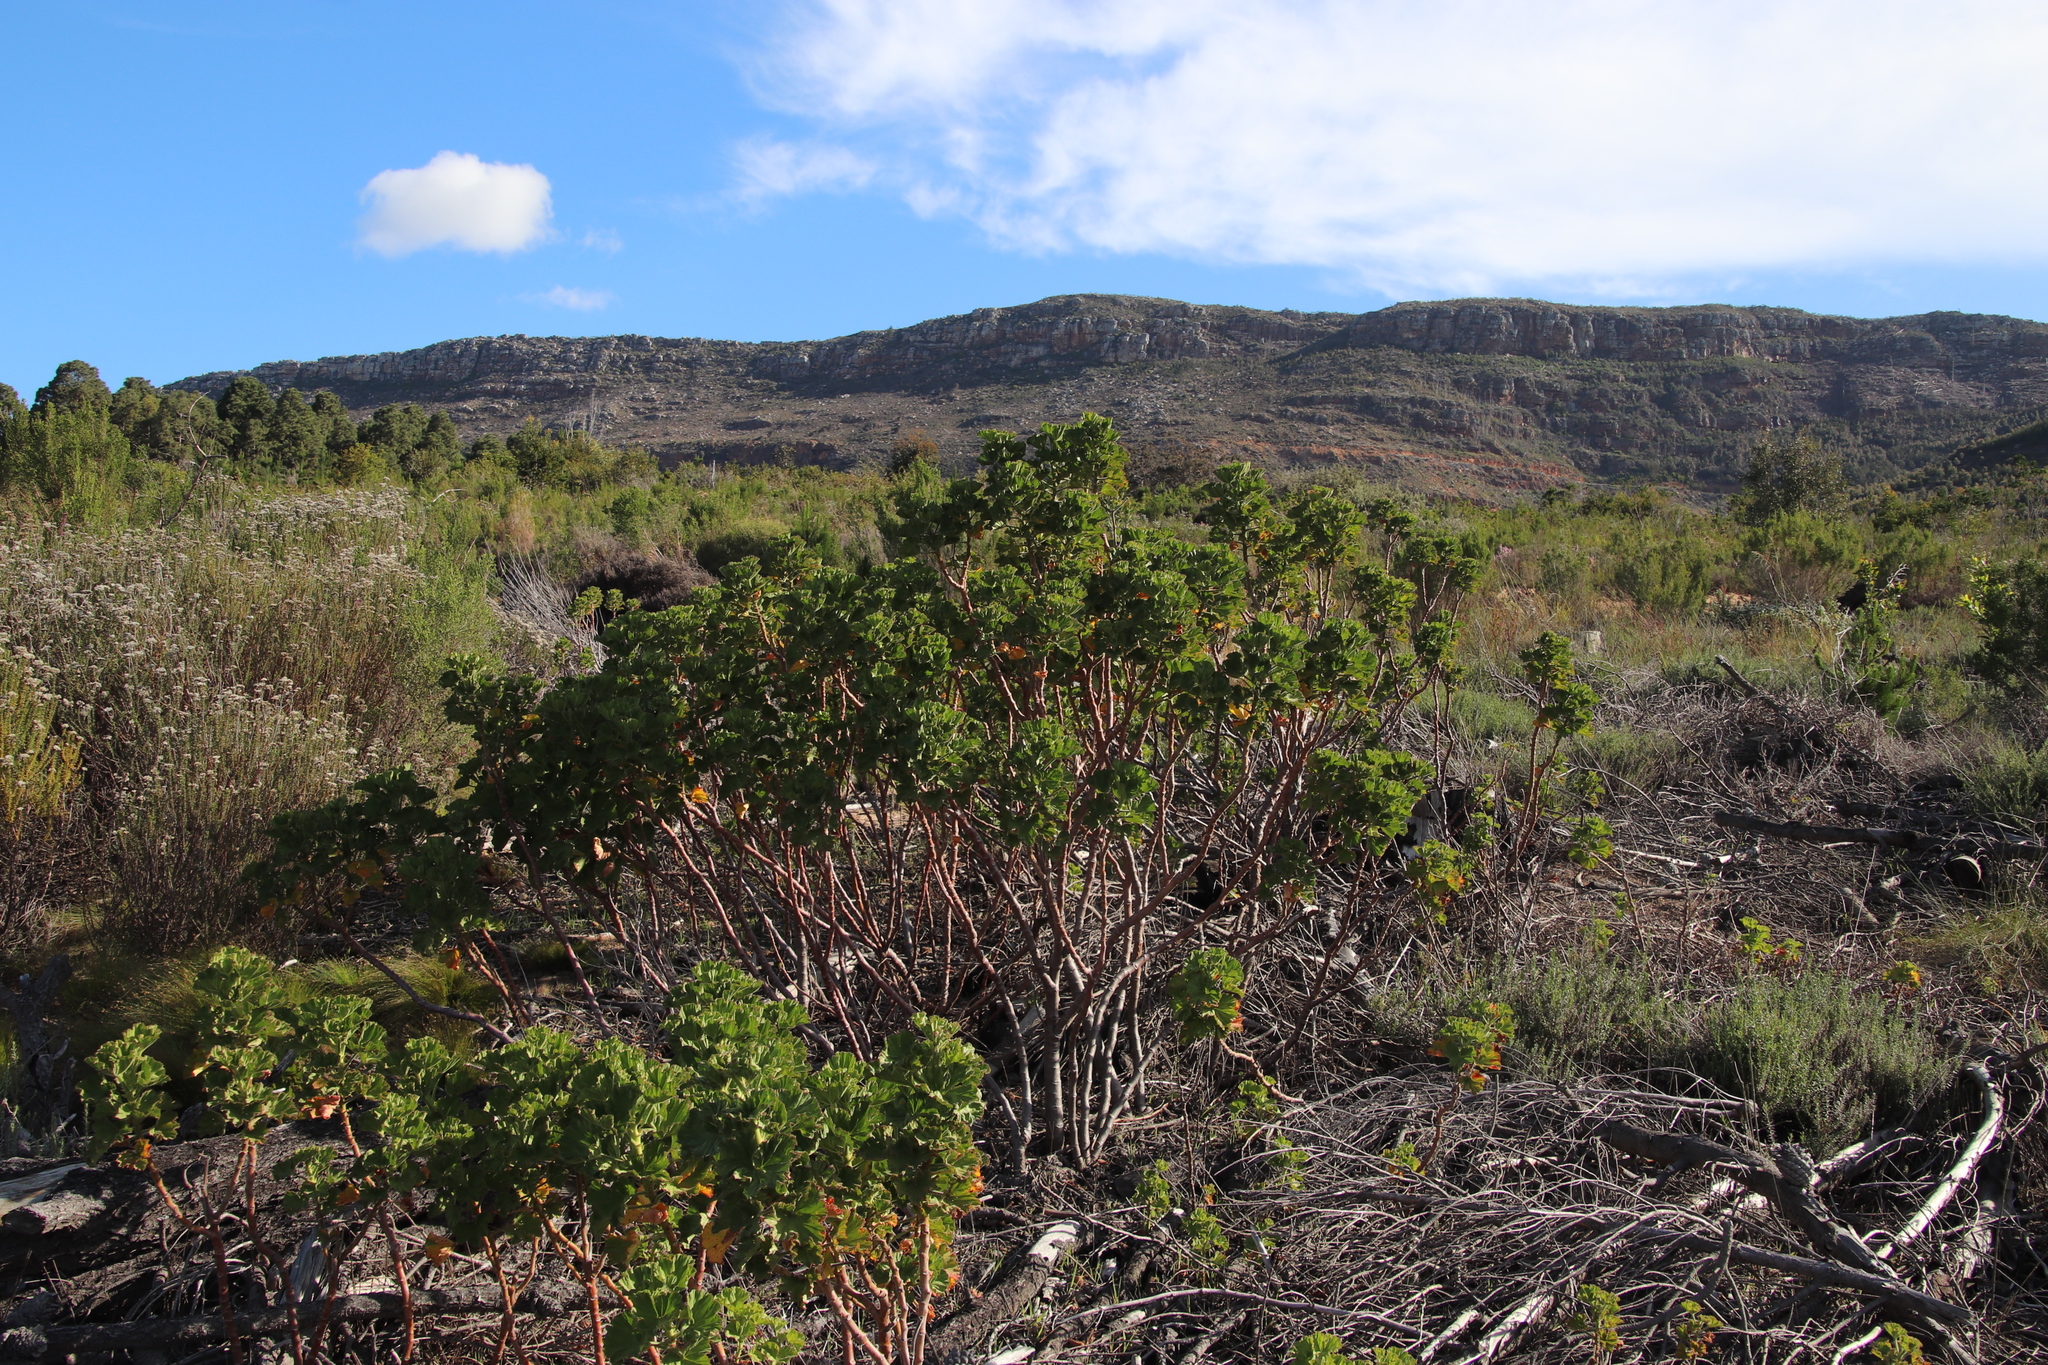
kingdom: Plantae
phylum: Tracheophyta
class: Magnoliopsida
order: Geraniales
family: Geraniaceae
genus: Pelargonium
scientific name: Pelargonium cucullatum
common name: Tree pelargonium
